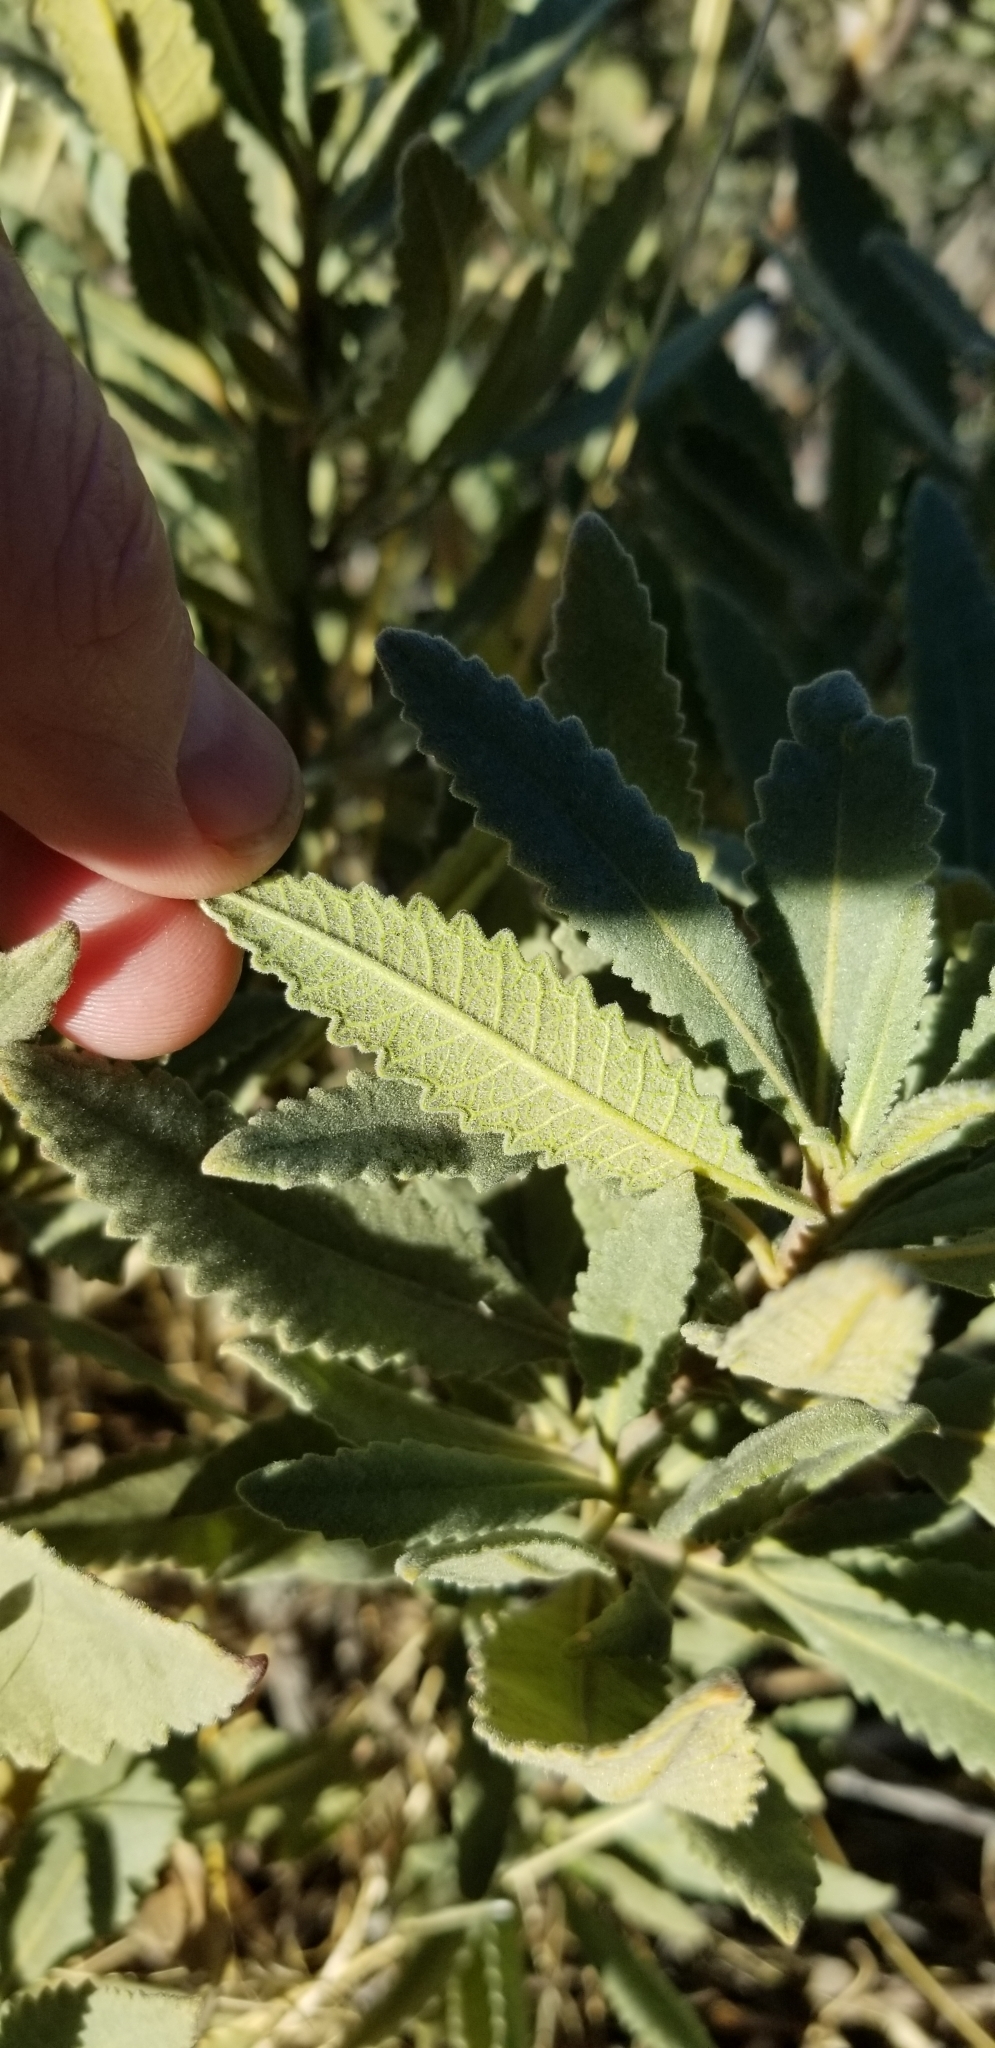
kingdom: Plantae
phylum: Tracheophyta
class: Magnoliopsida
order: Boraginales
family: Namaceae
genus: Eriodictyon
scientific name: Eriodictyon crassifolium
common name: Thick-leaf yerba-santa
